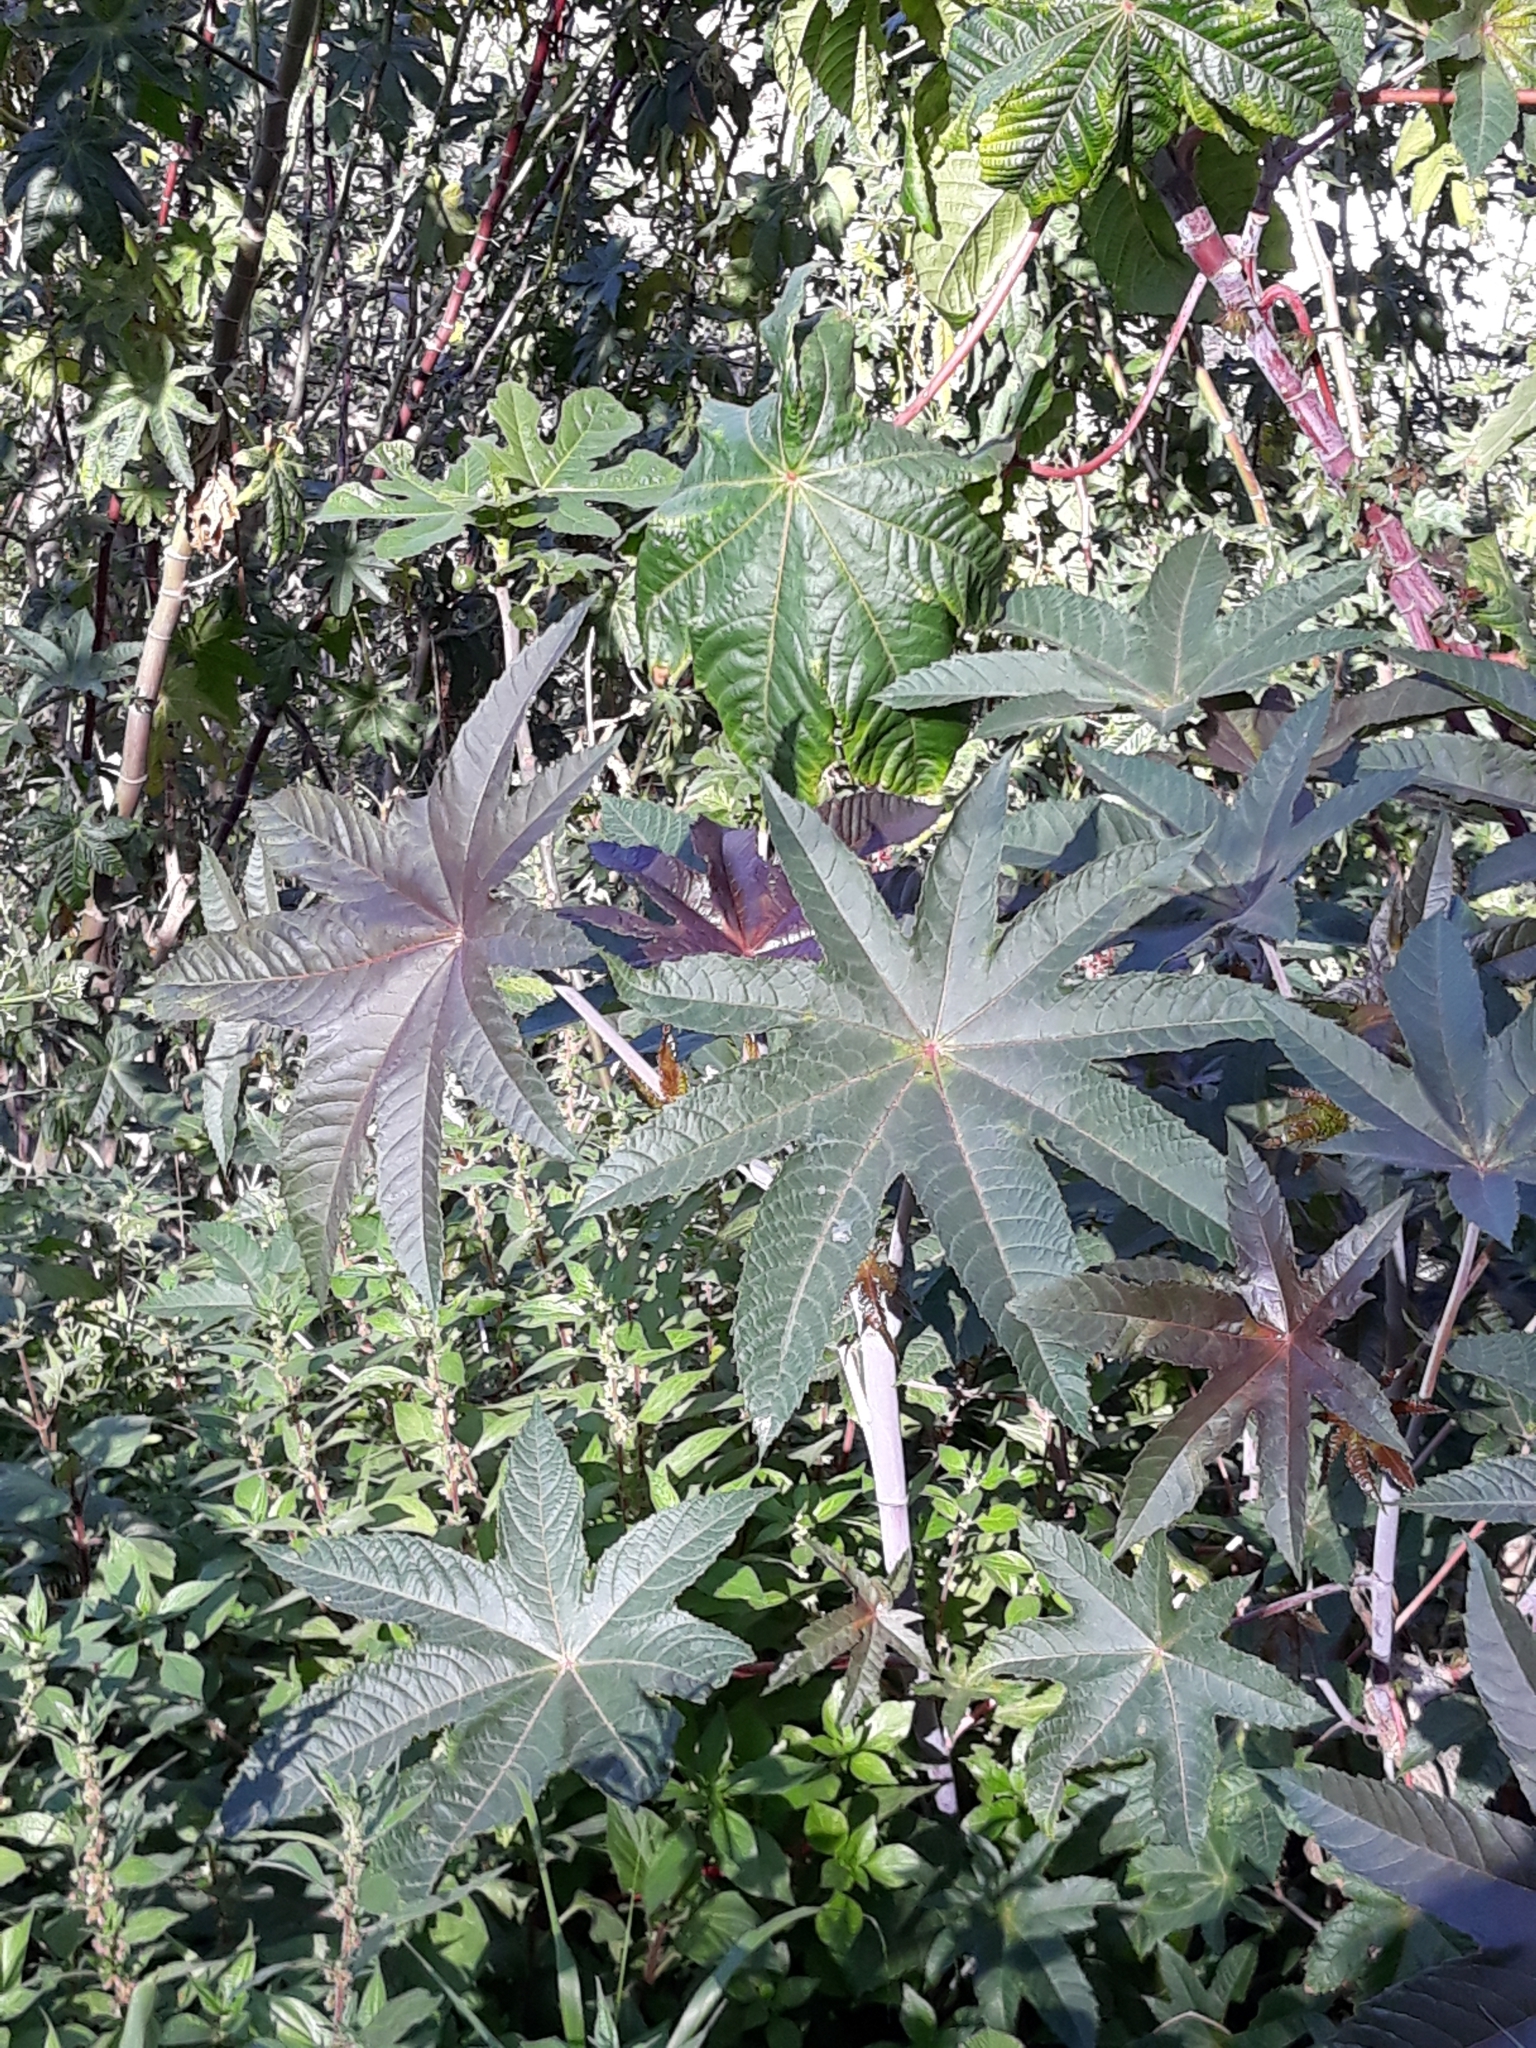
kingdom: Plantae
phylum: Tracheophyta
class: Magnoliopsida
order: Malpighiales
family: Euphorbiaceae
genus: Ricinus
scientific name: Ricinus communis
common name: Castor-oil-plant
